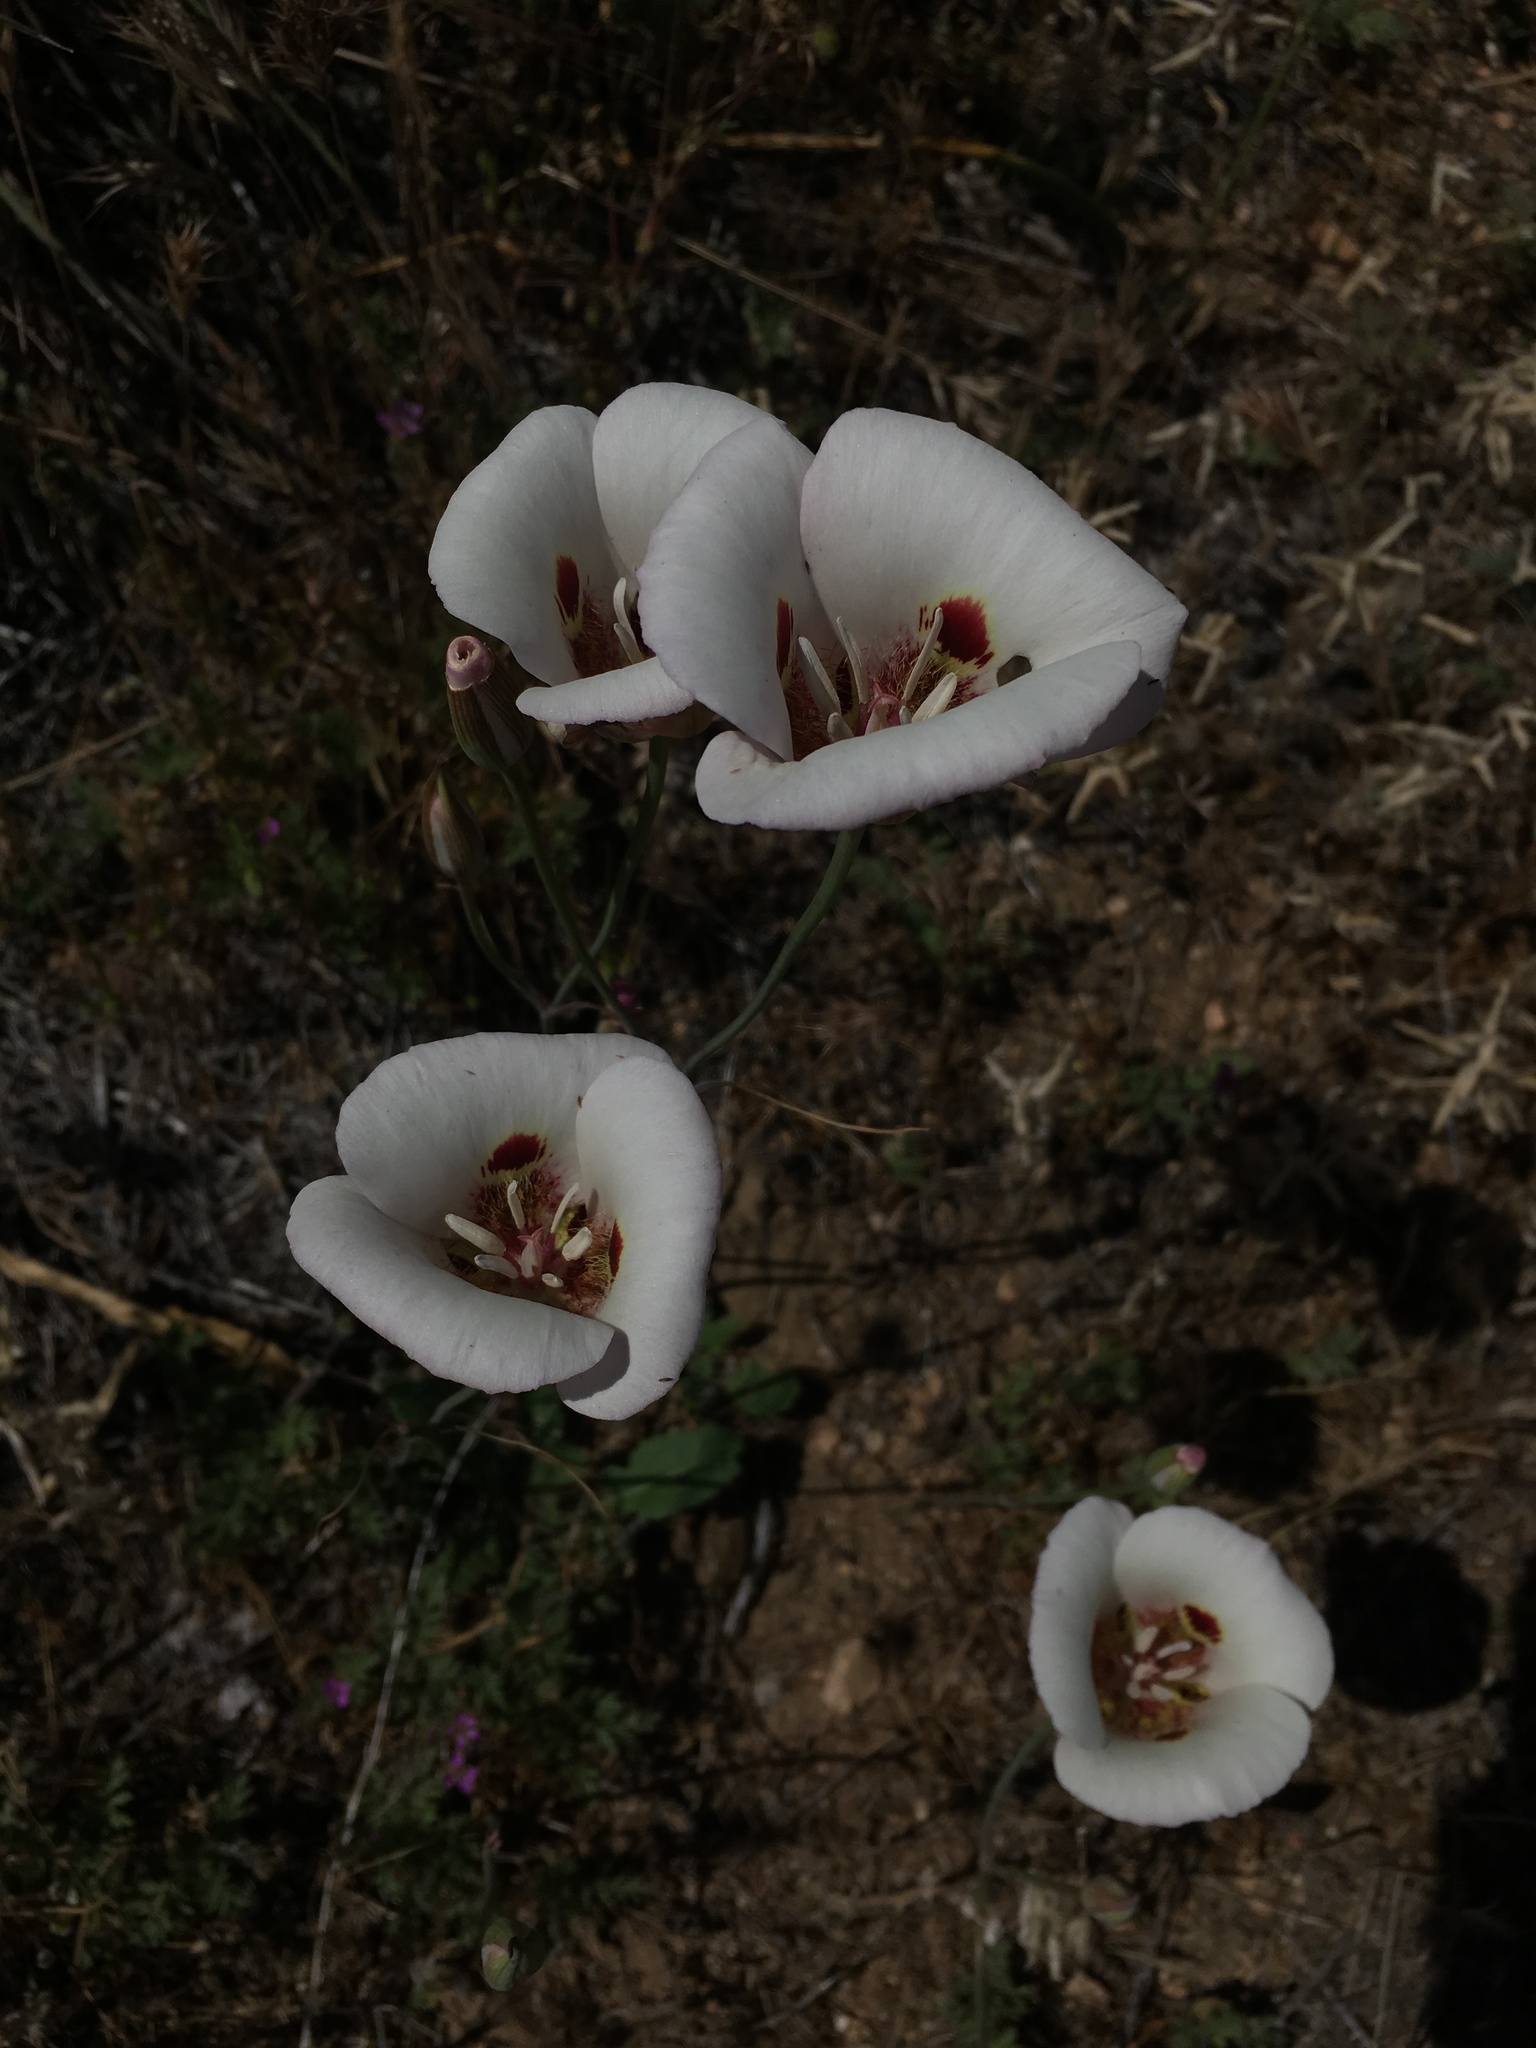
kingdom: Plantae
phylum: Tracheophyta
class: Liliopsida
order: Liliales
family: Liliaceae
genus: Calochortus
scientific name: Calochortus venustus
